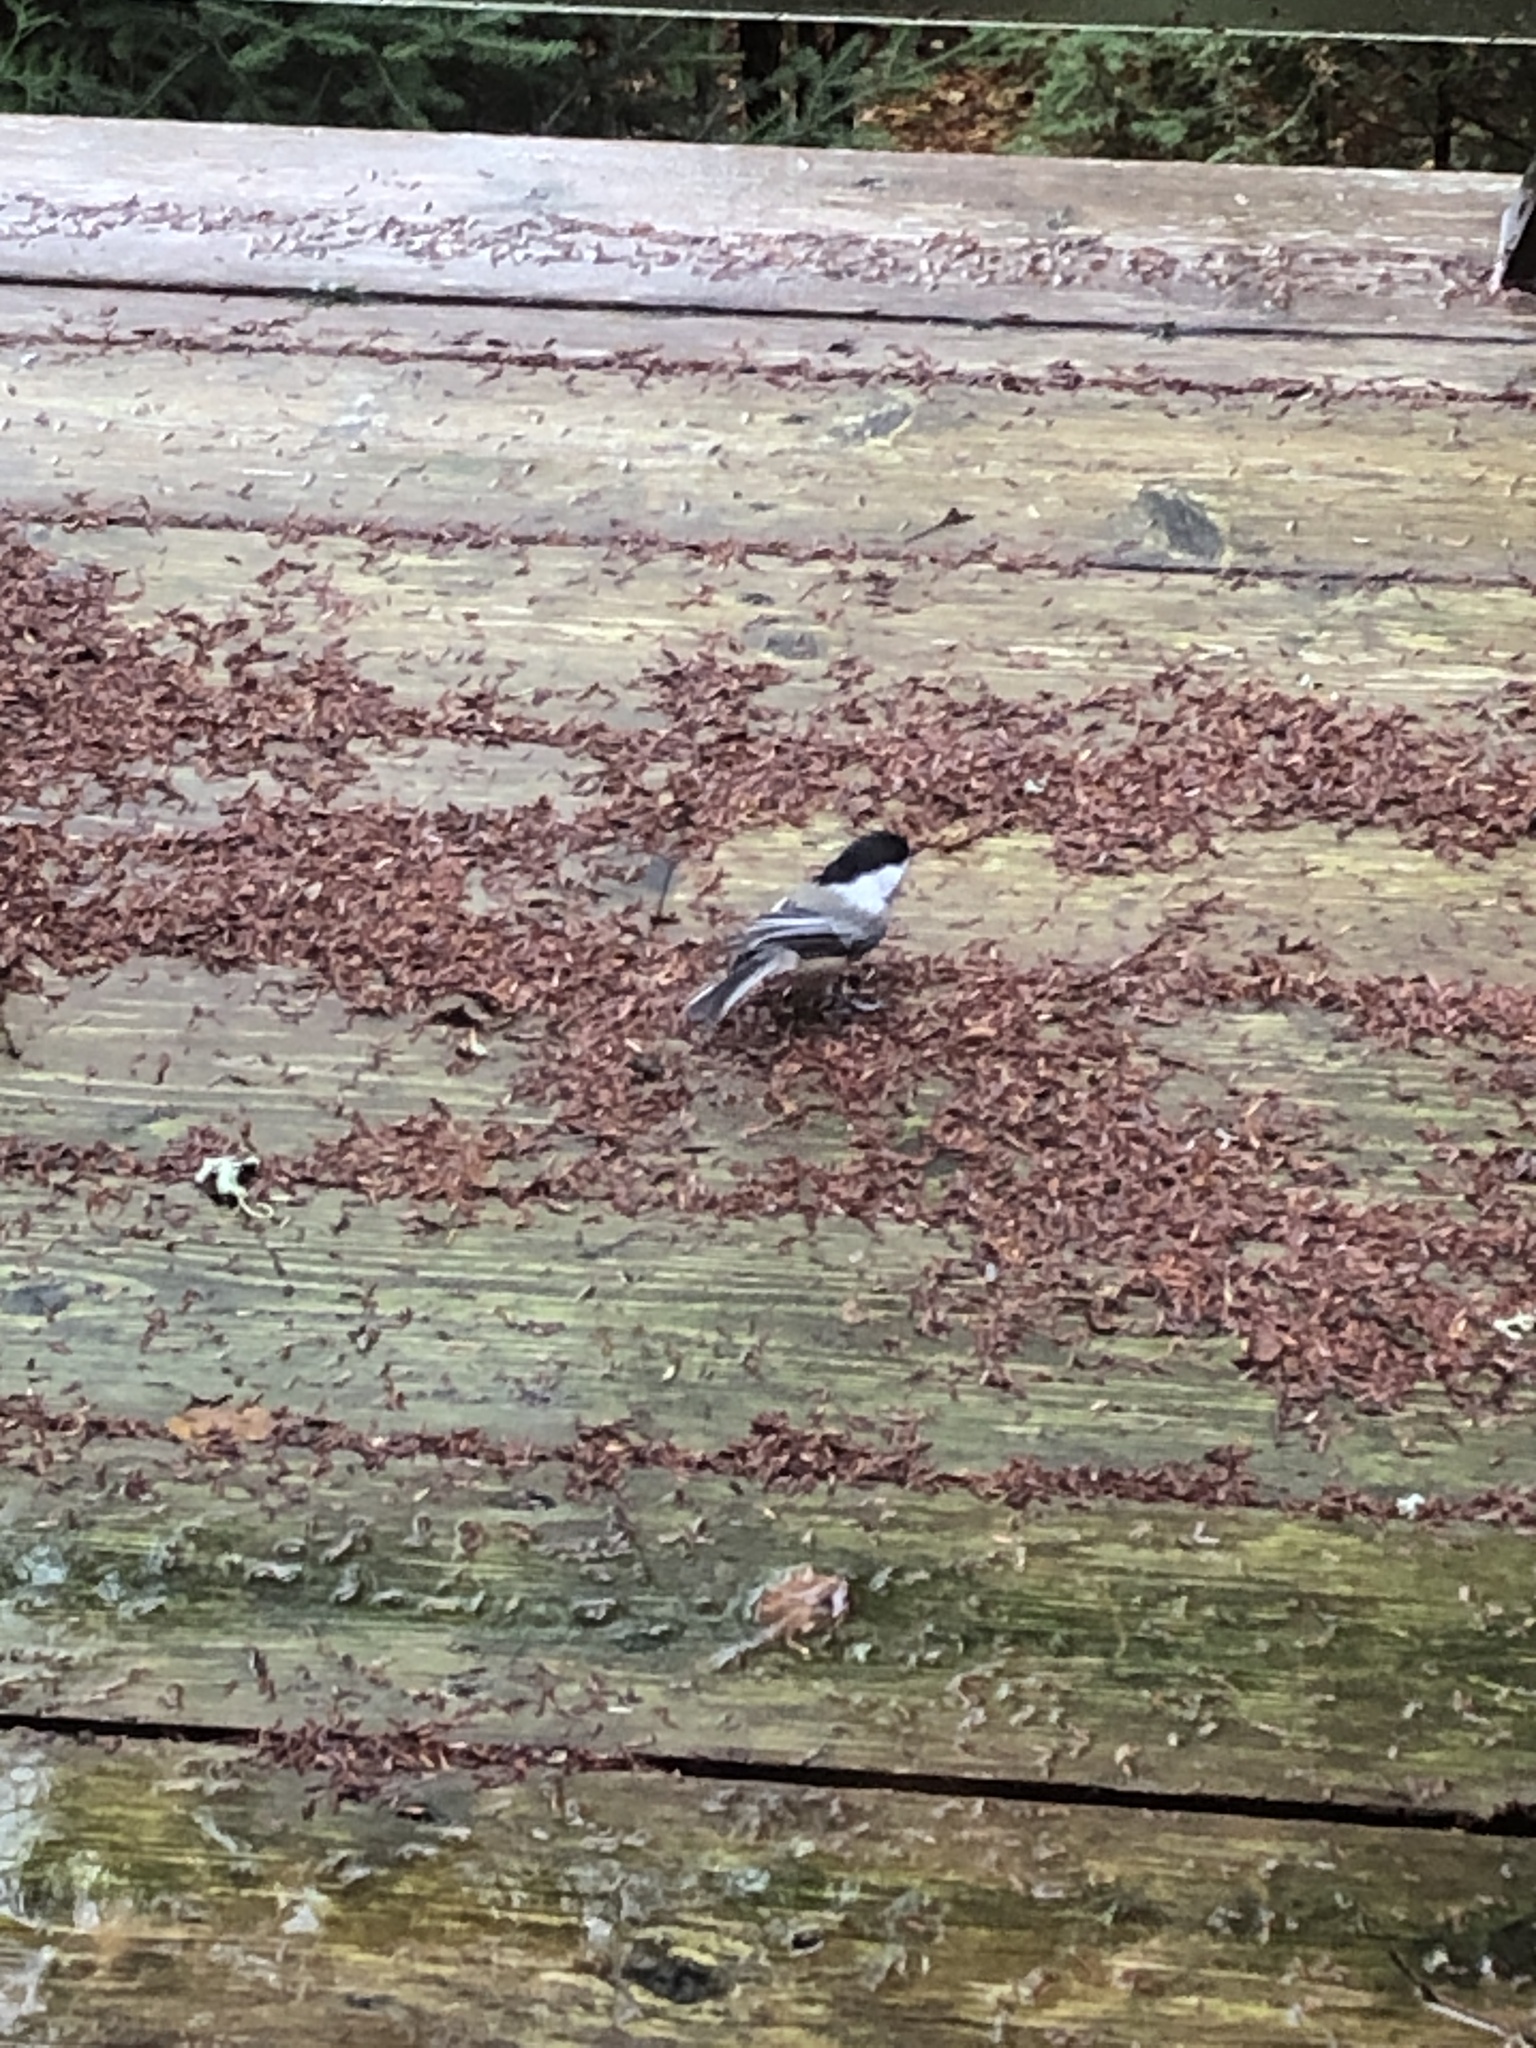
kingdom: Animalia
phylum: Chordata
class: Aves
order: Passeriformes
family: Paridae
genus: Poecile
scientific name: Poecile atricapillus
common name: Black-capped chickadee
